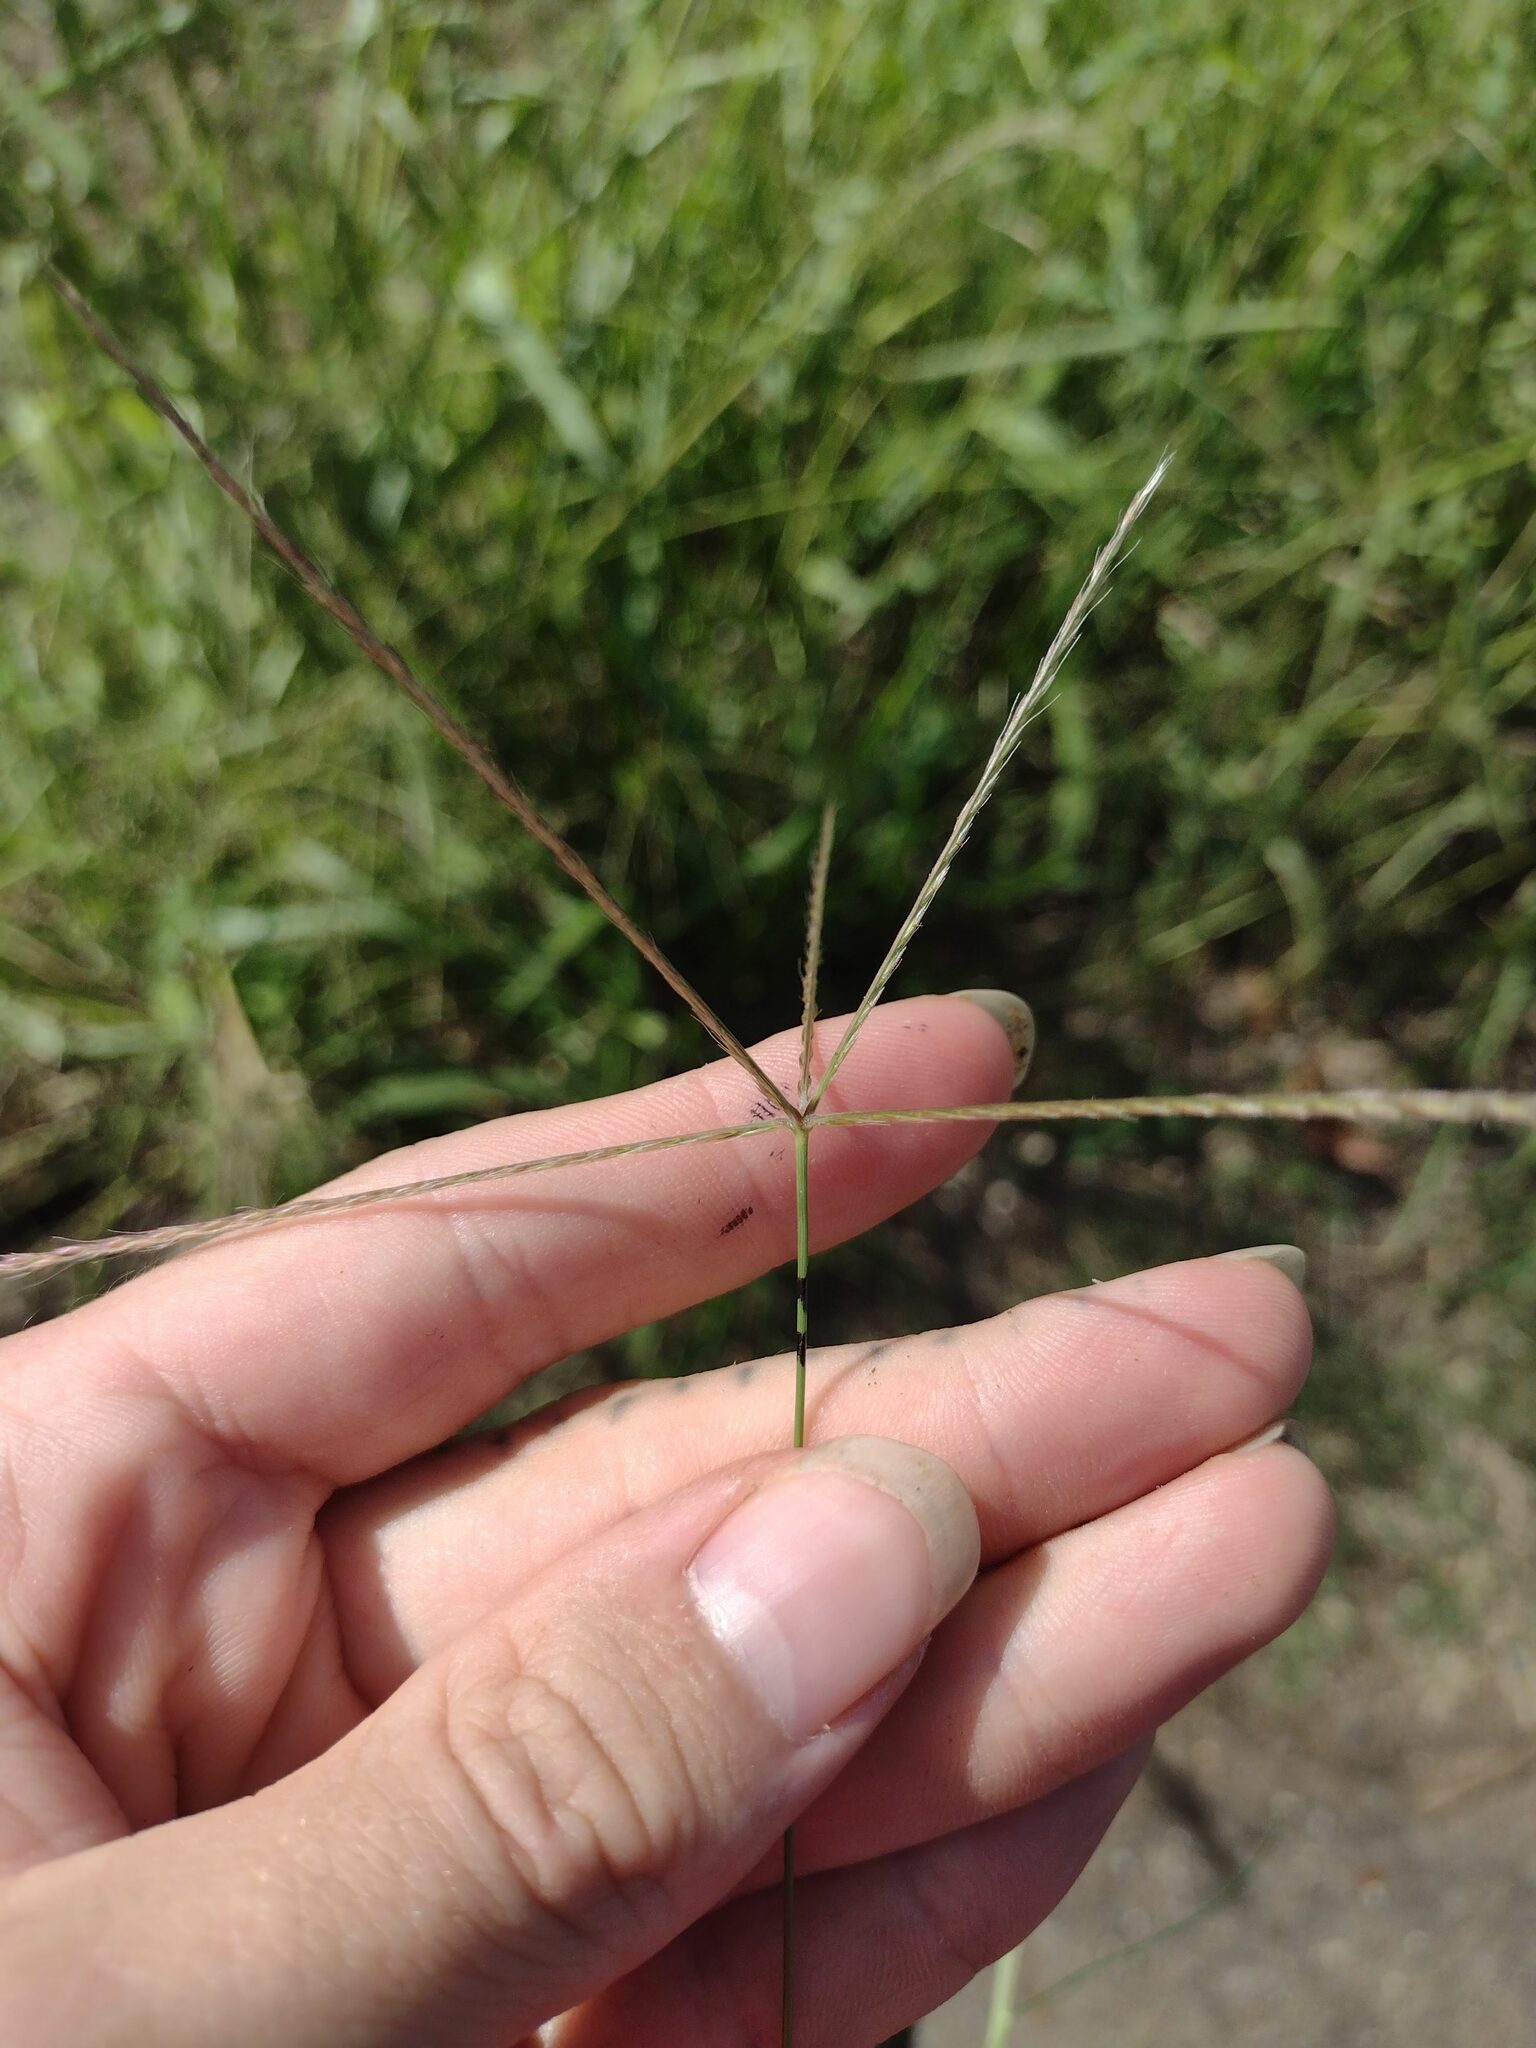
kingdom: Plantae
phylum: Tracheophyta
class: Liliopsida
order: Poales
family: Poaceae
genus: Chloris
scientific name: Chloris divaricata
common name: Spreading windmill grass
